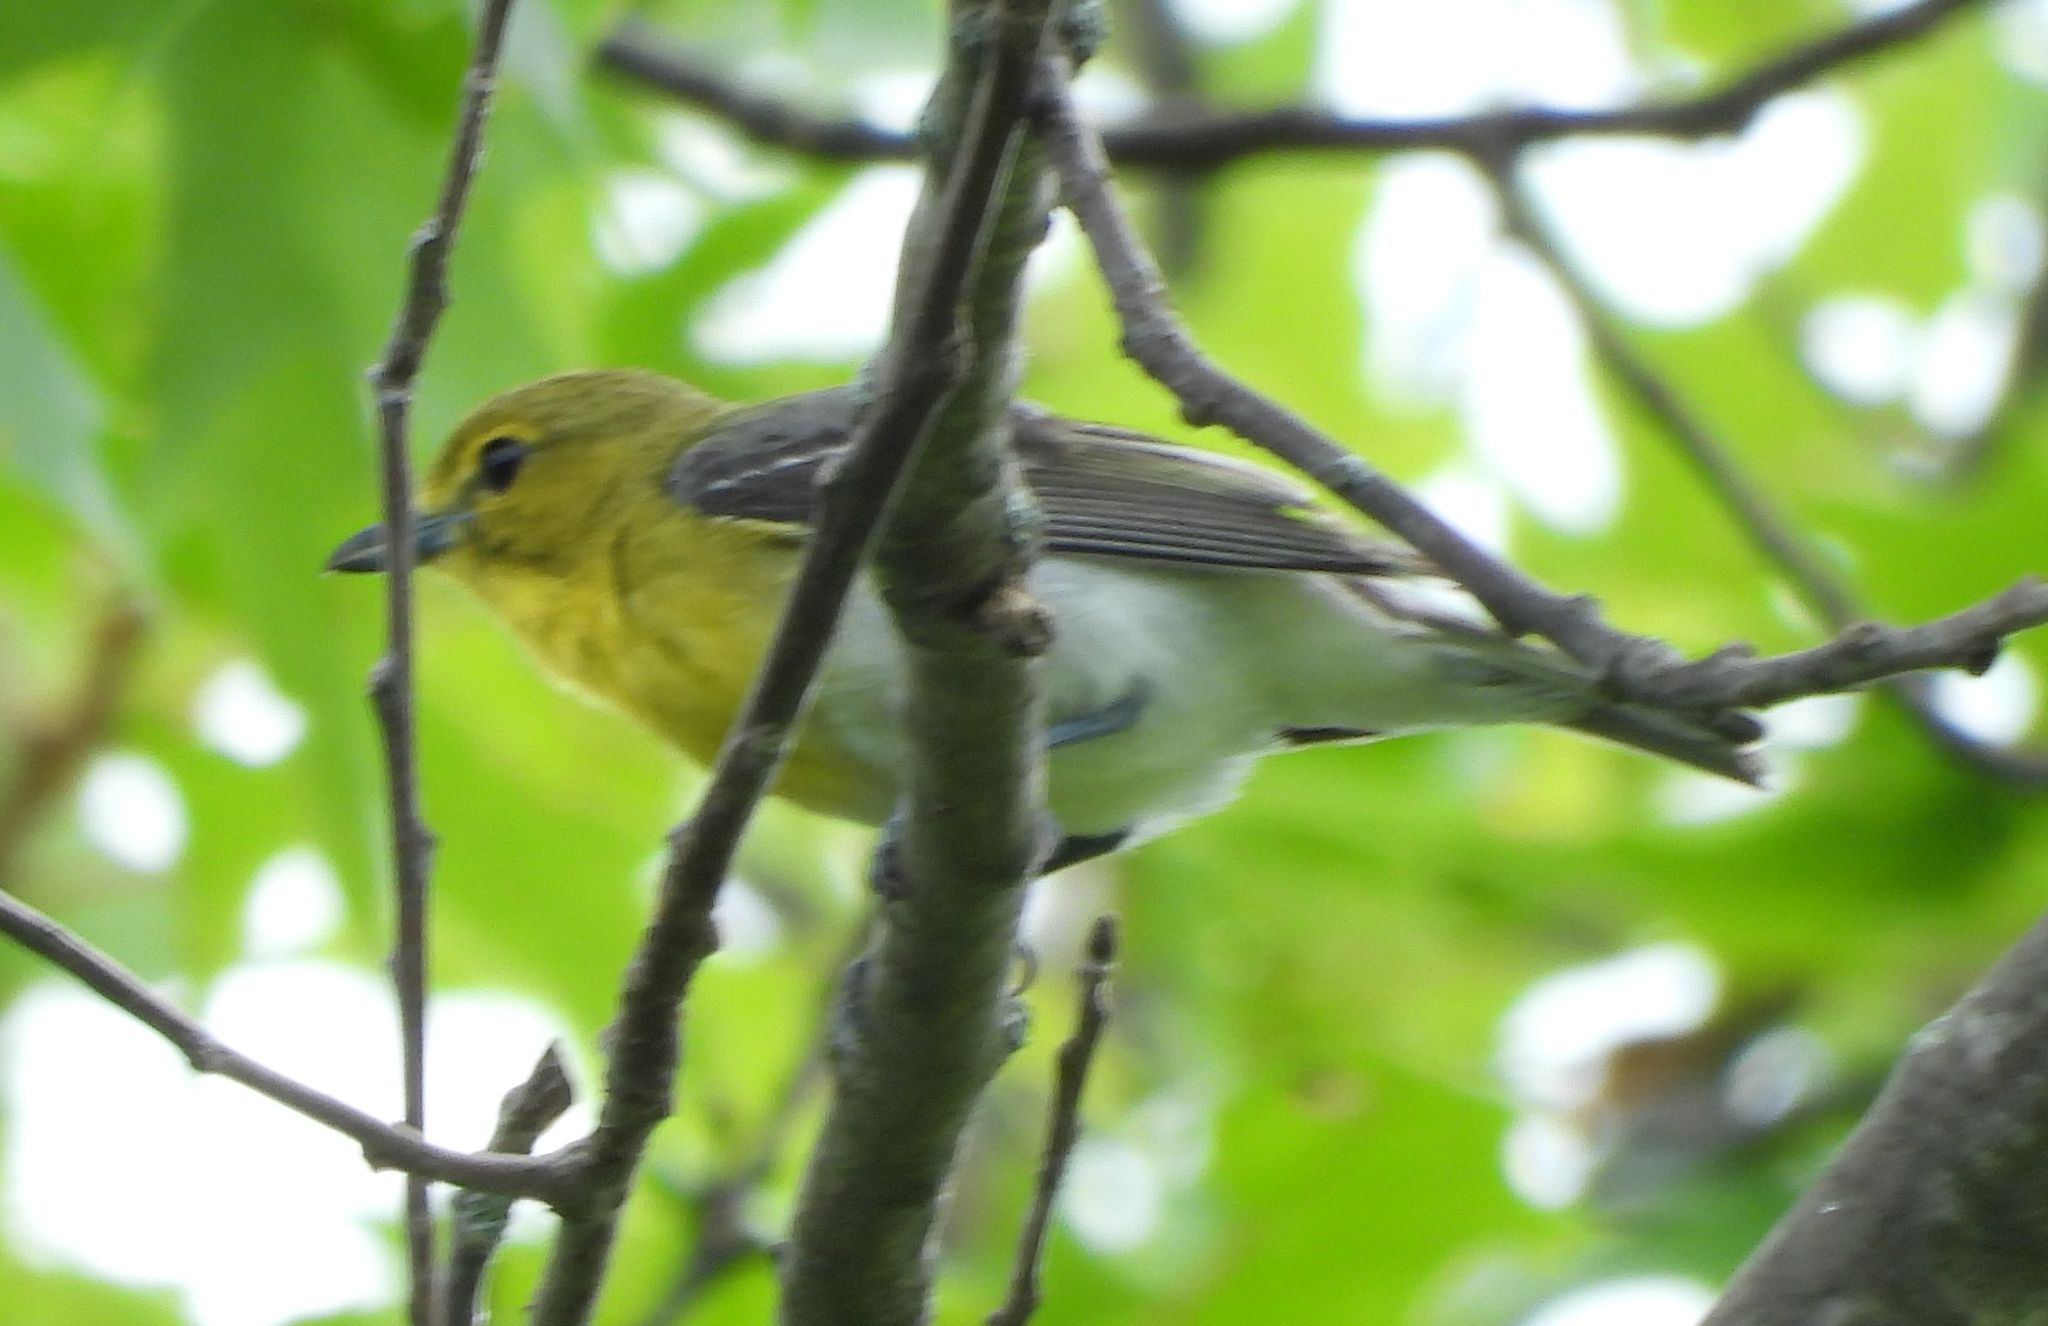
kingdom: Animalia
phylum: Chordata
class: Aves
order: Passeriformes
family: Vireonidae
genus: Vireo
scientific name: Vireo flavifrons
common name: Yellow-throated vireo
